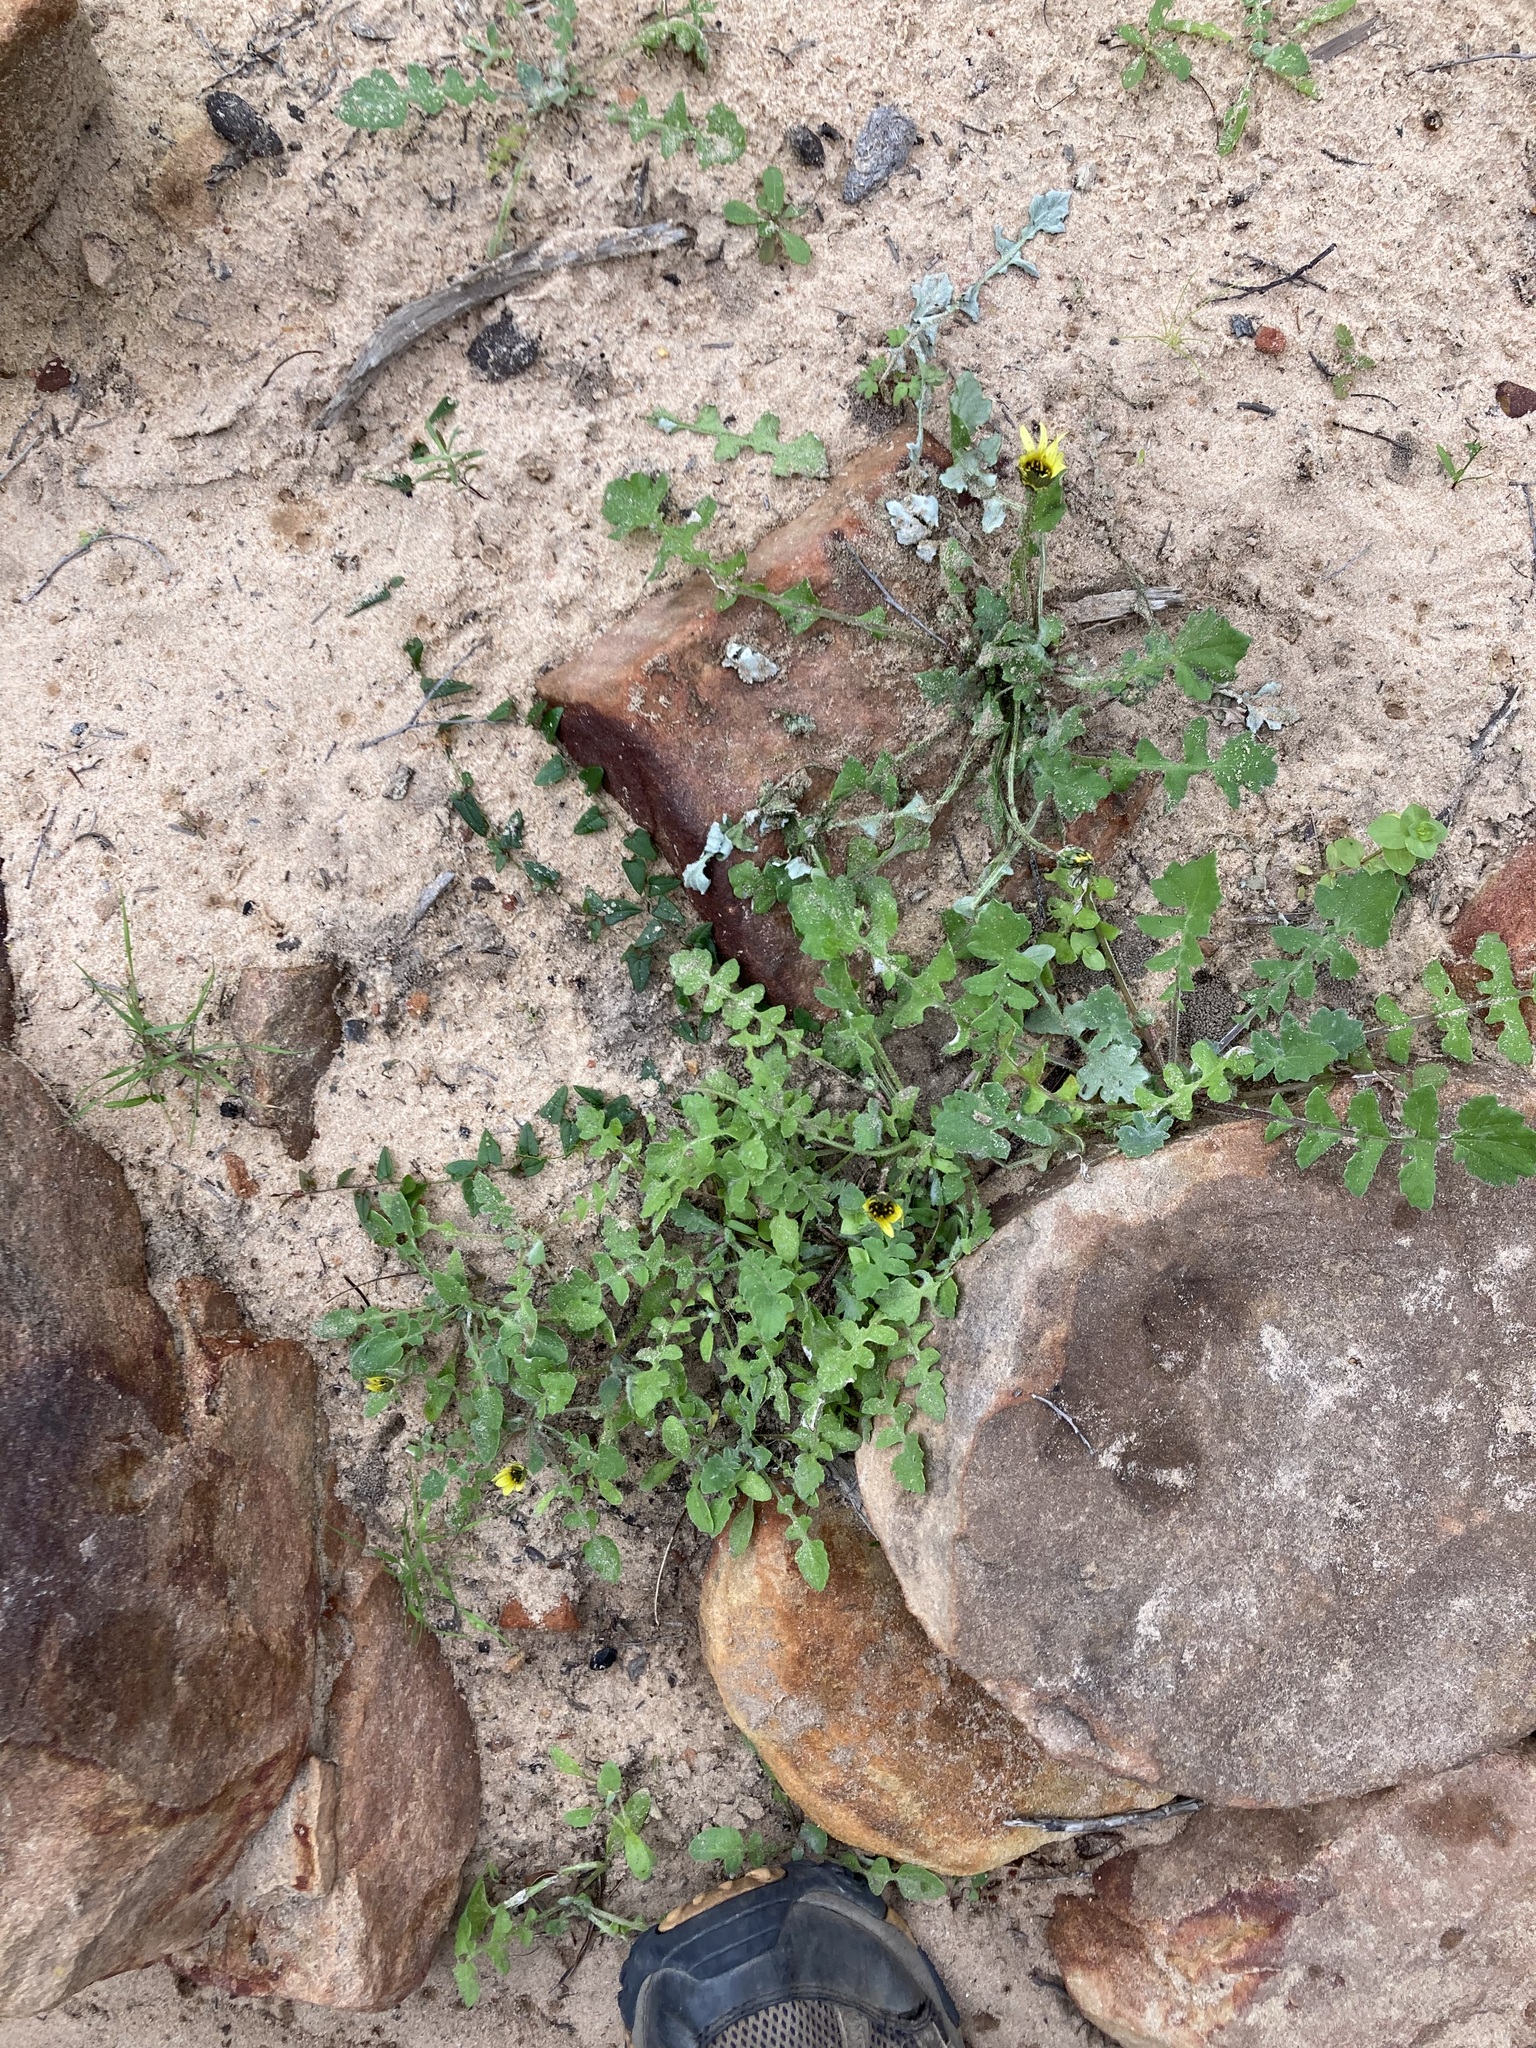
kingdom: Plantae
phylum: Tracheophyta
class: Magnoliopsida
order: Asterales
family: Asteraceae
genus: Arctotheca
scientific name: Arctotheca calendula
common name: Capeweed
